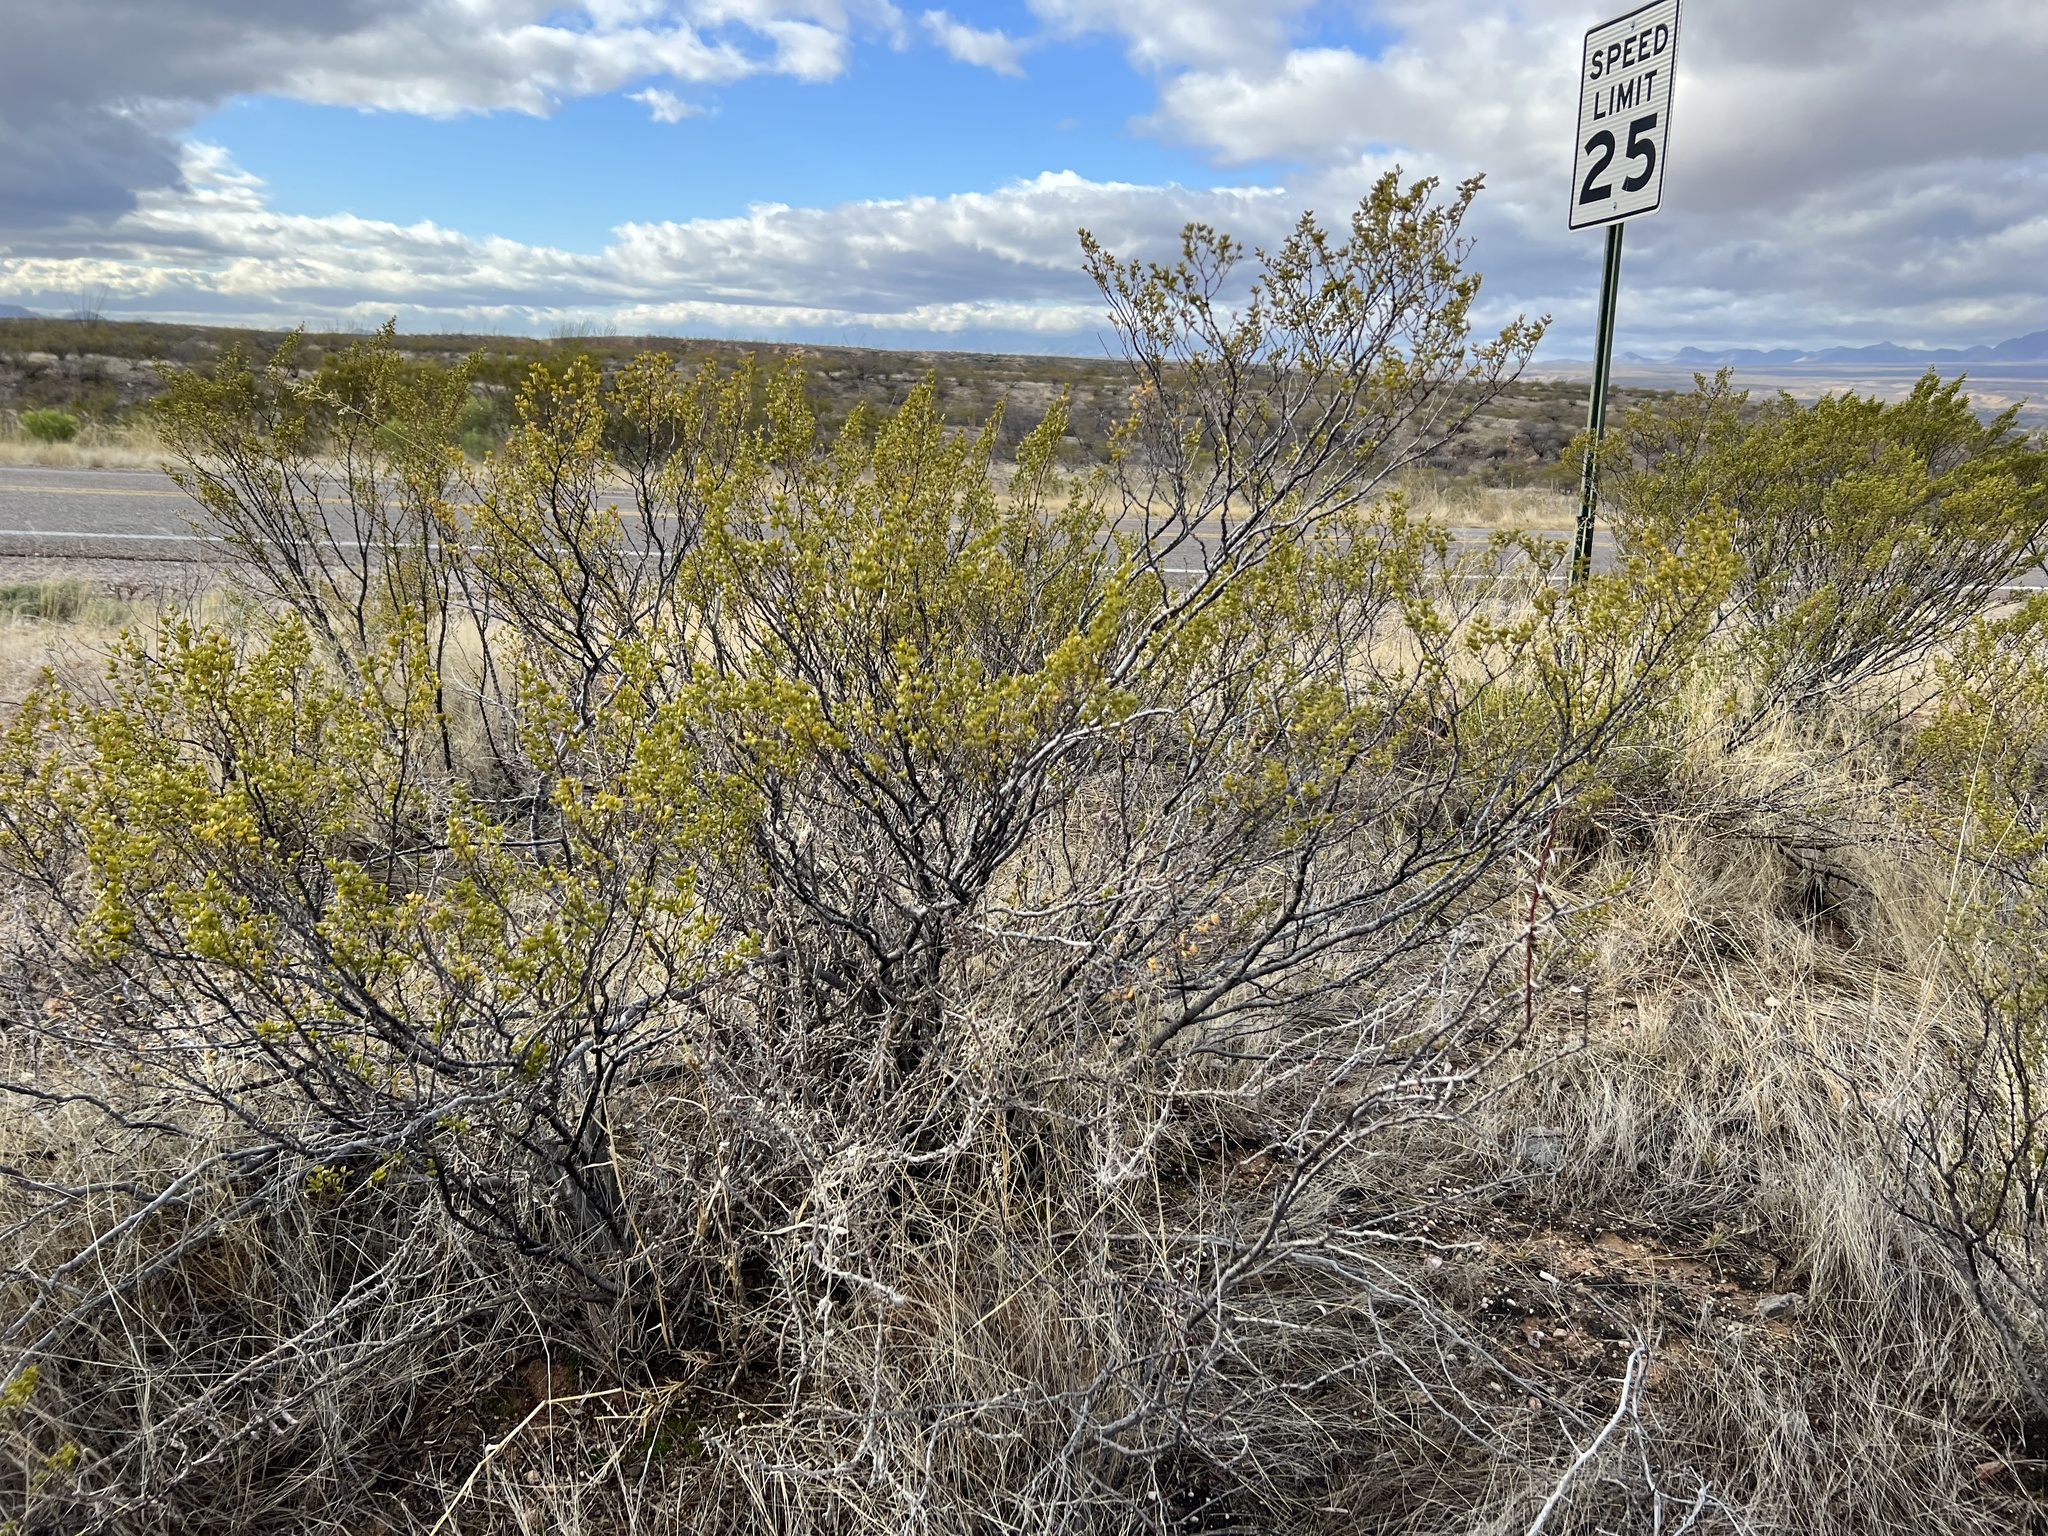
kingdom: Plantae
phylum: Tracheophyta
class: Magnoliopsida
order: Zygophyllales
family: Zygophyllaceae
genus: Larrea
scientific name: Larrea tridentata
